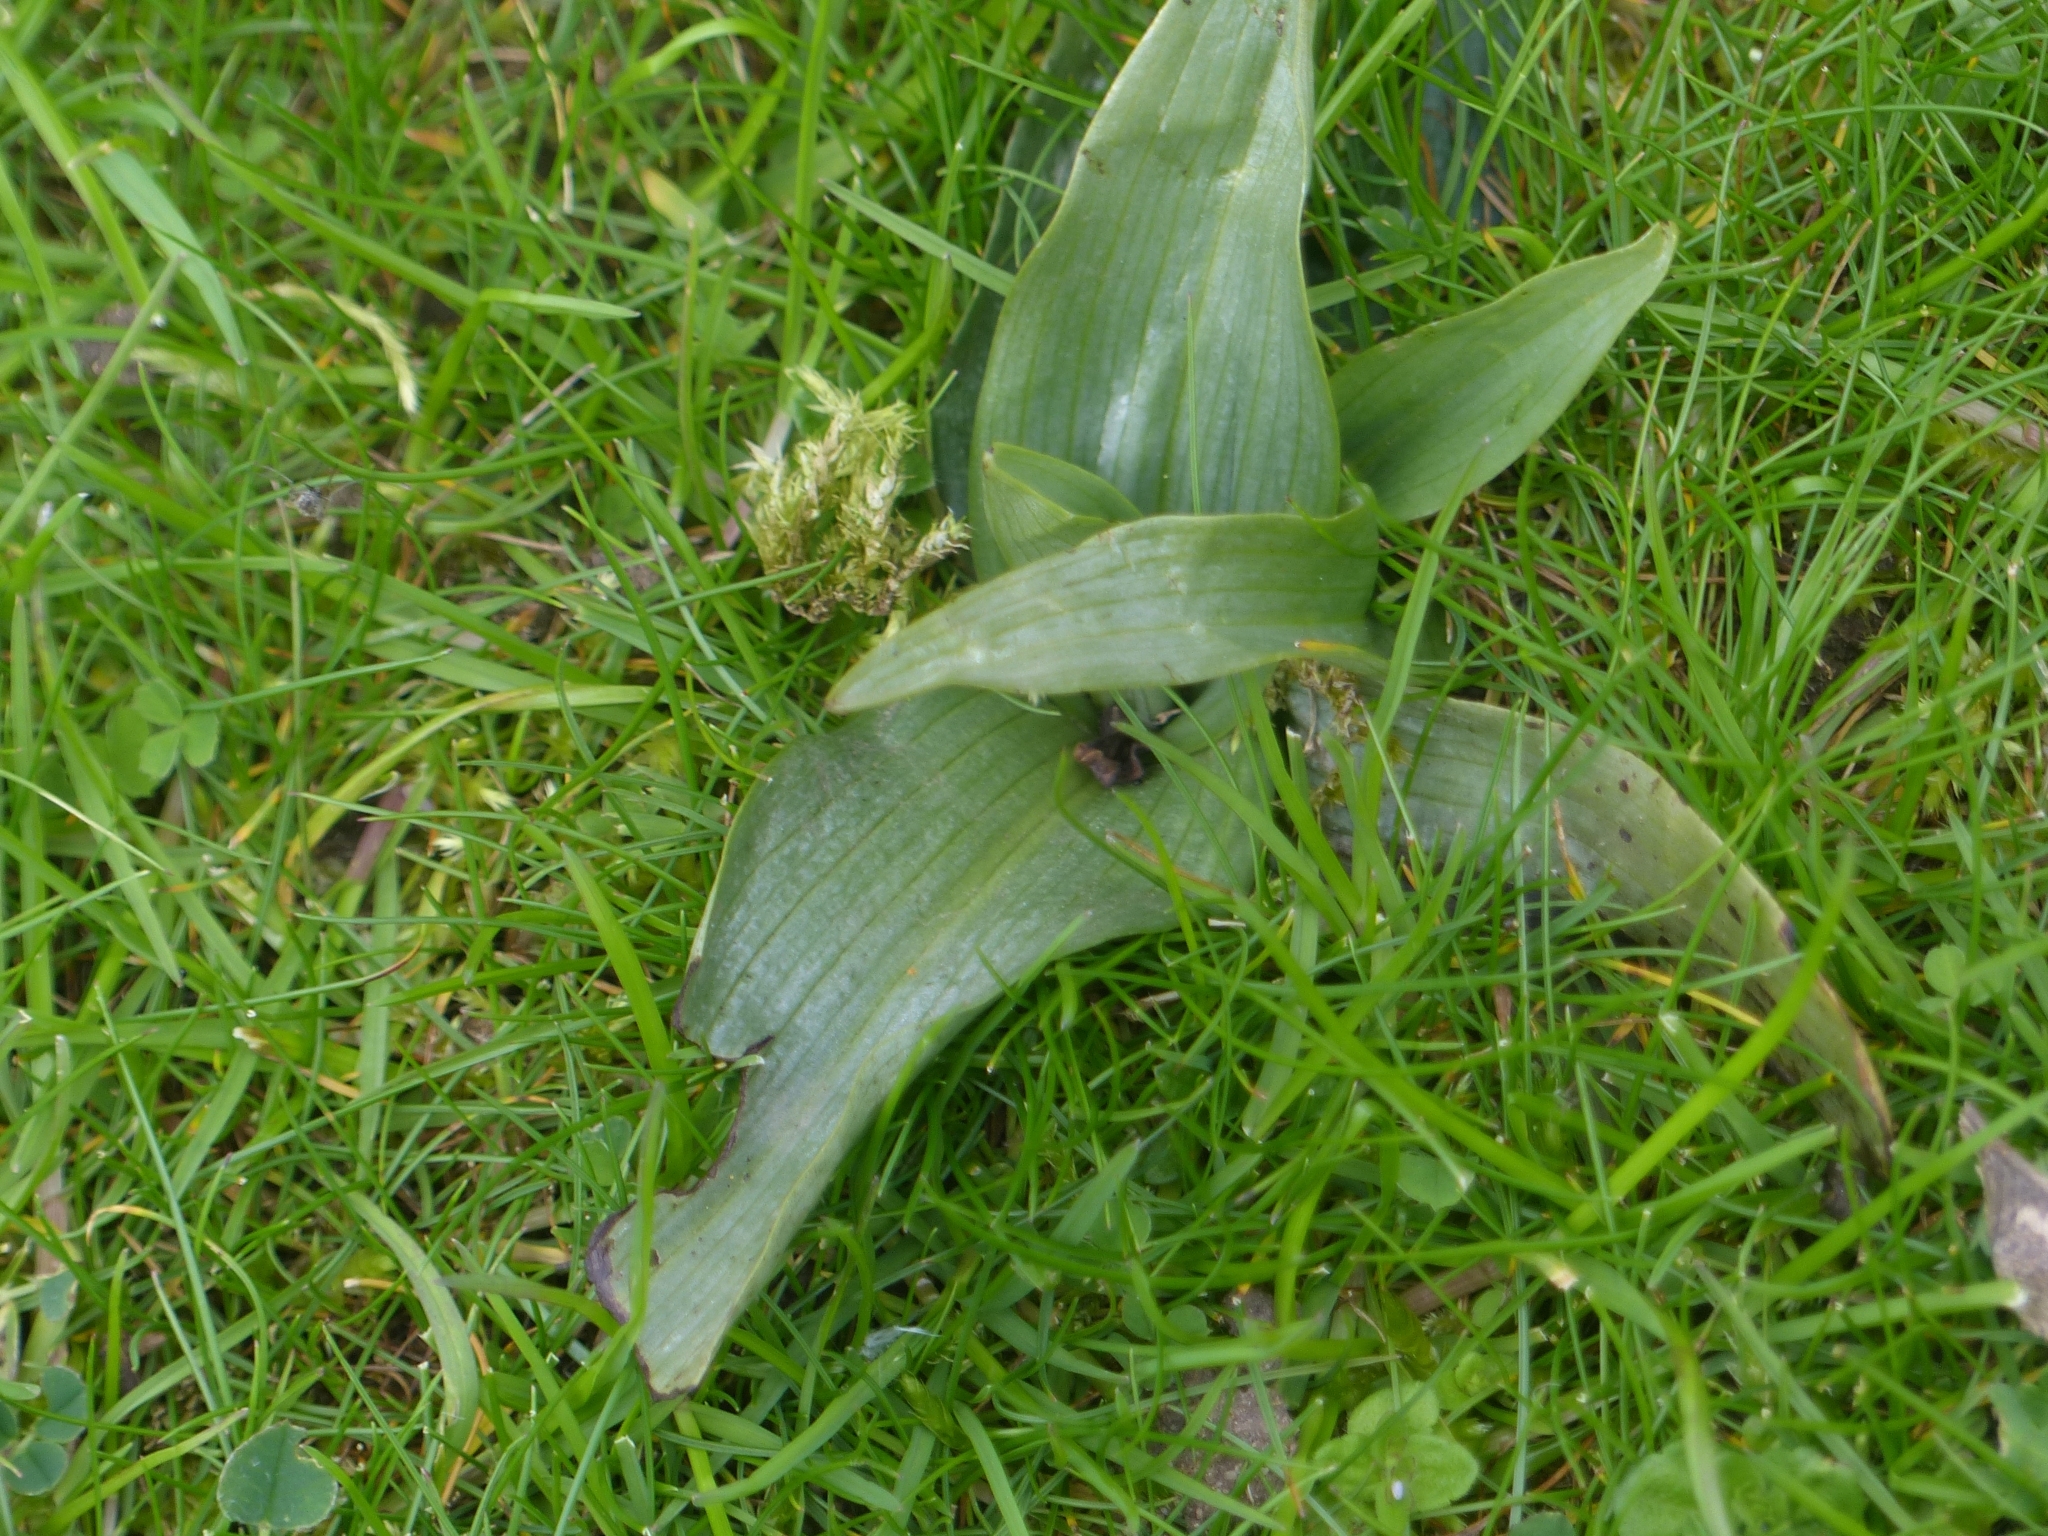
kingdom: Plantae
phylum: Tracheophyta
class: Liliopsida
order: Asparagales
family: Orchidaceae
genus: Ophrys
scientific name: Ophrys apifera
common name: Bee orchid
